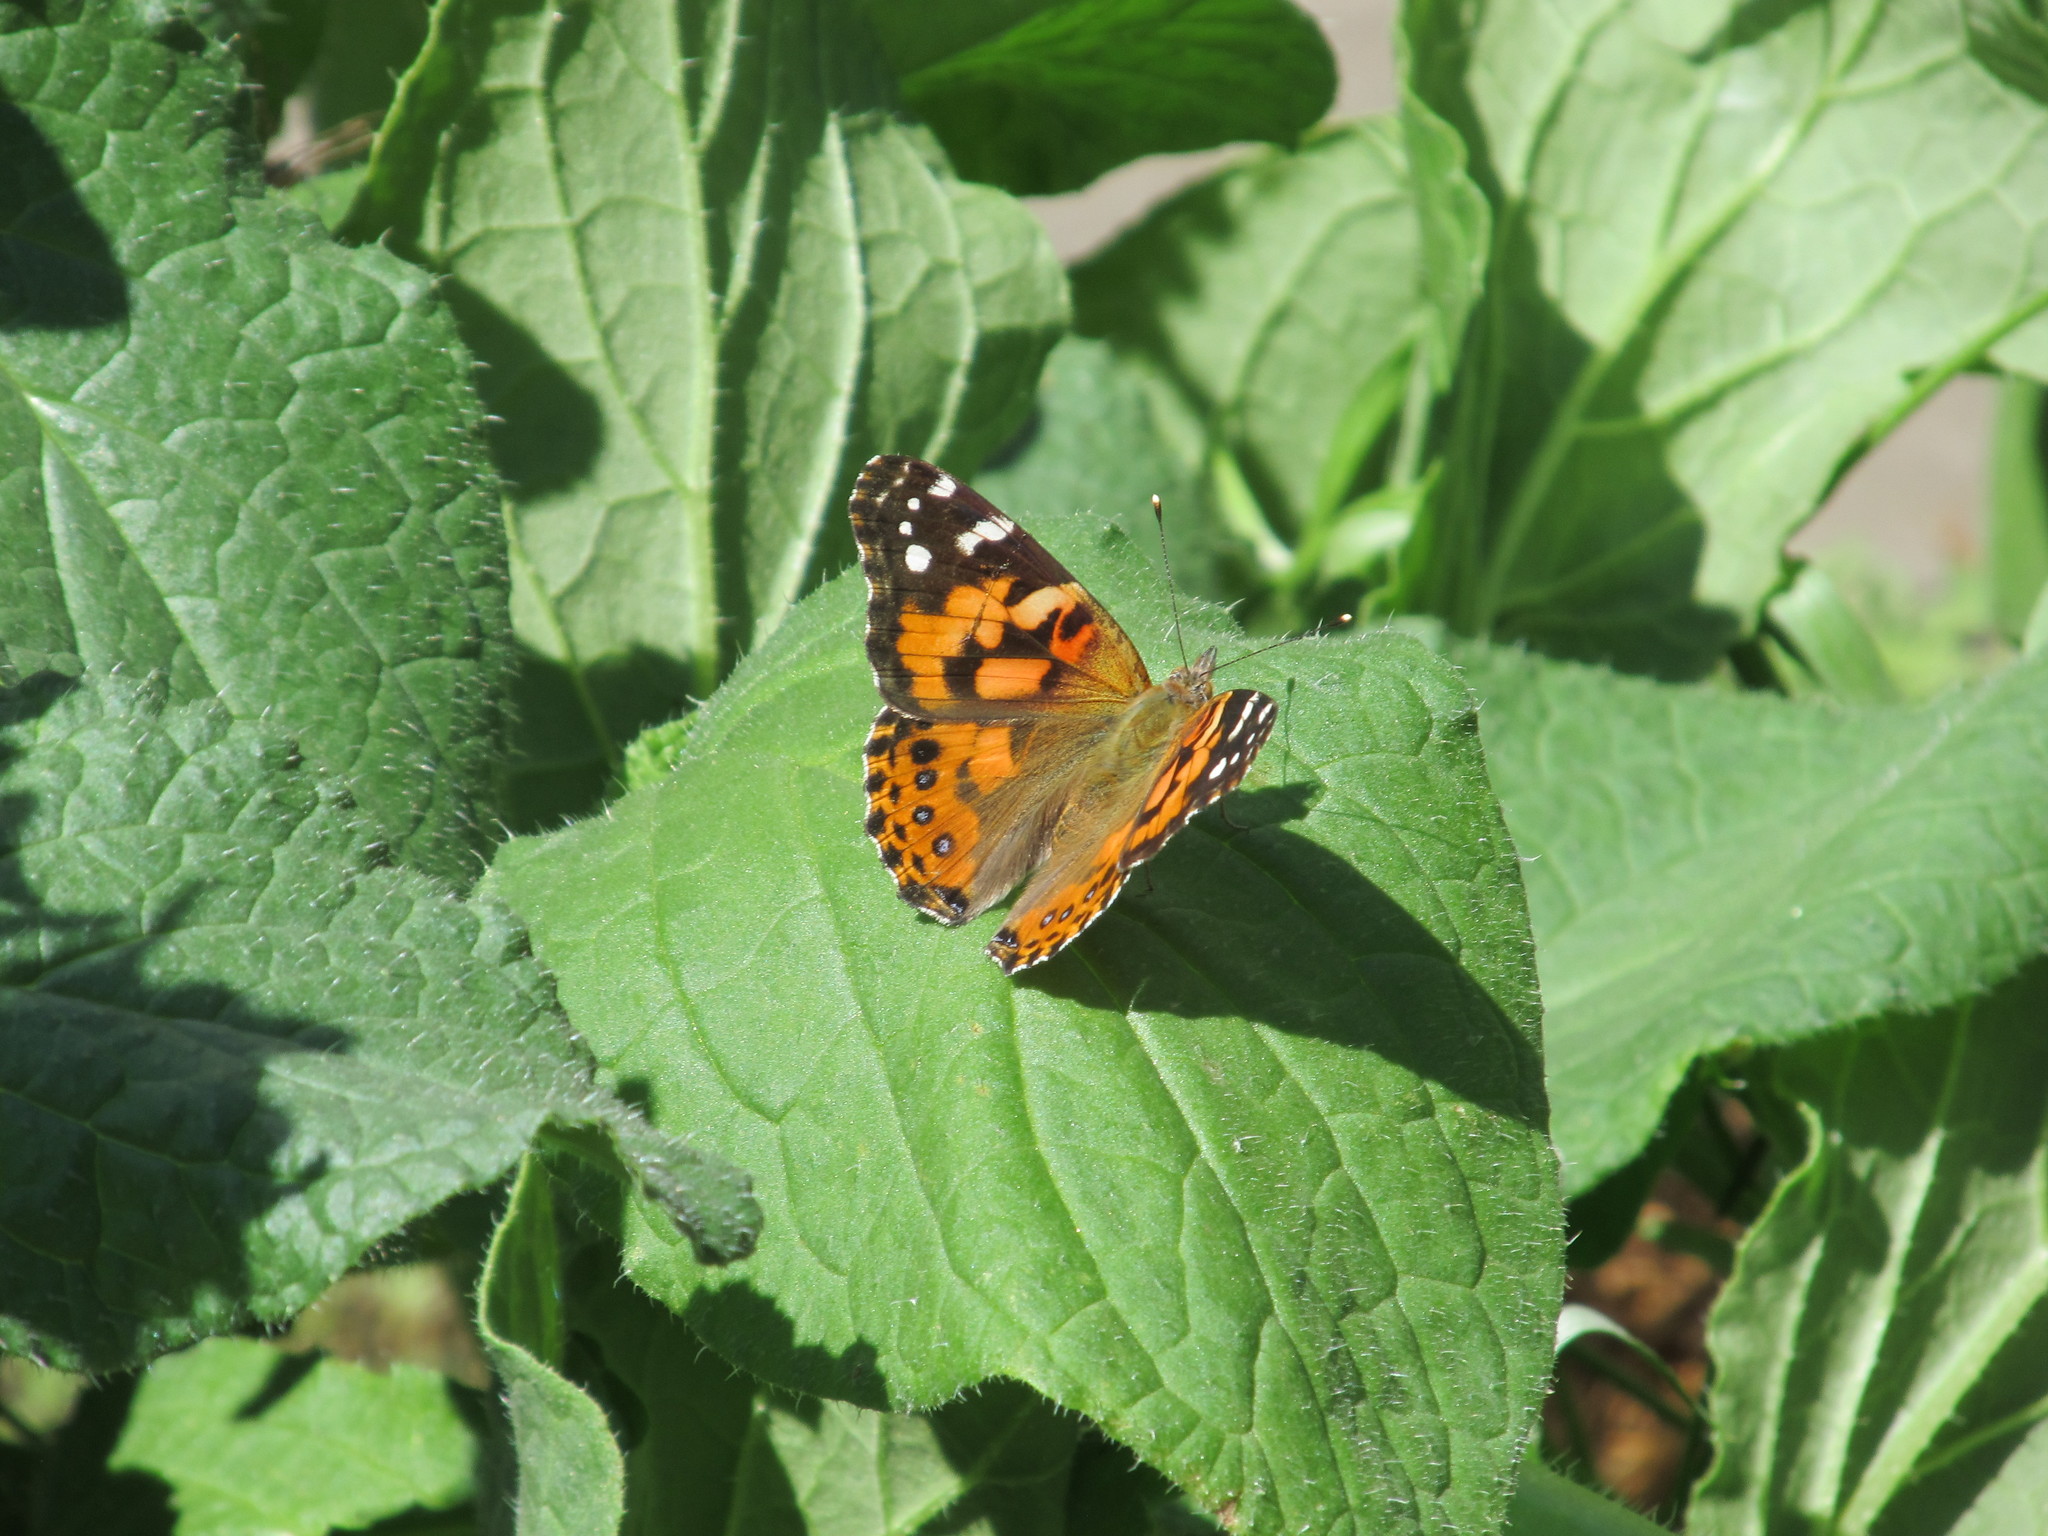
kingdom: Animalia
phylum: Arthropoda
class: Insecta
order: Lepidoptera
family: Nymphalidae
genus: Vanessa
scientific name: Vanessa cardui
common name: Painted lady
